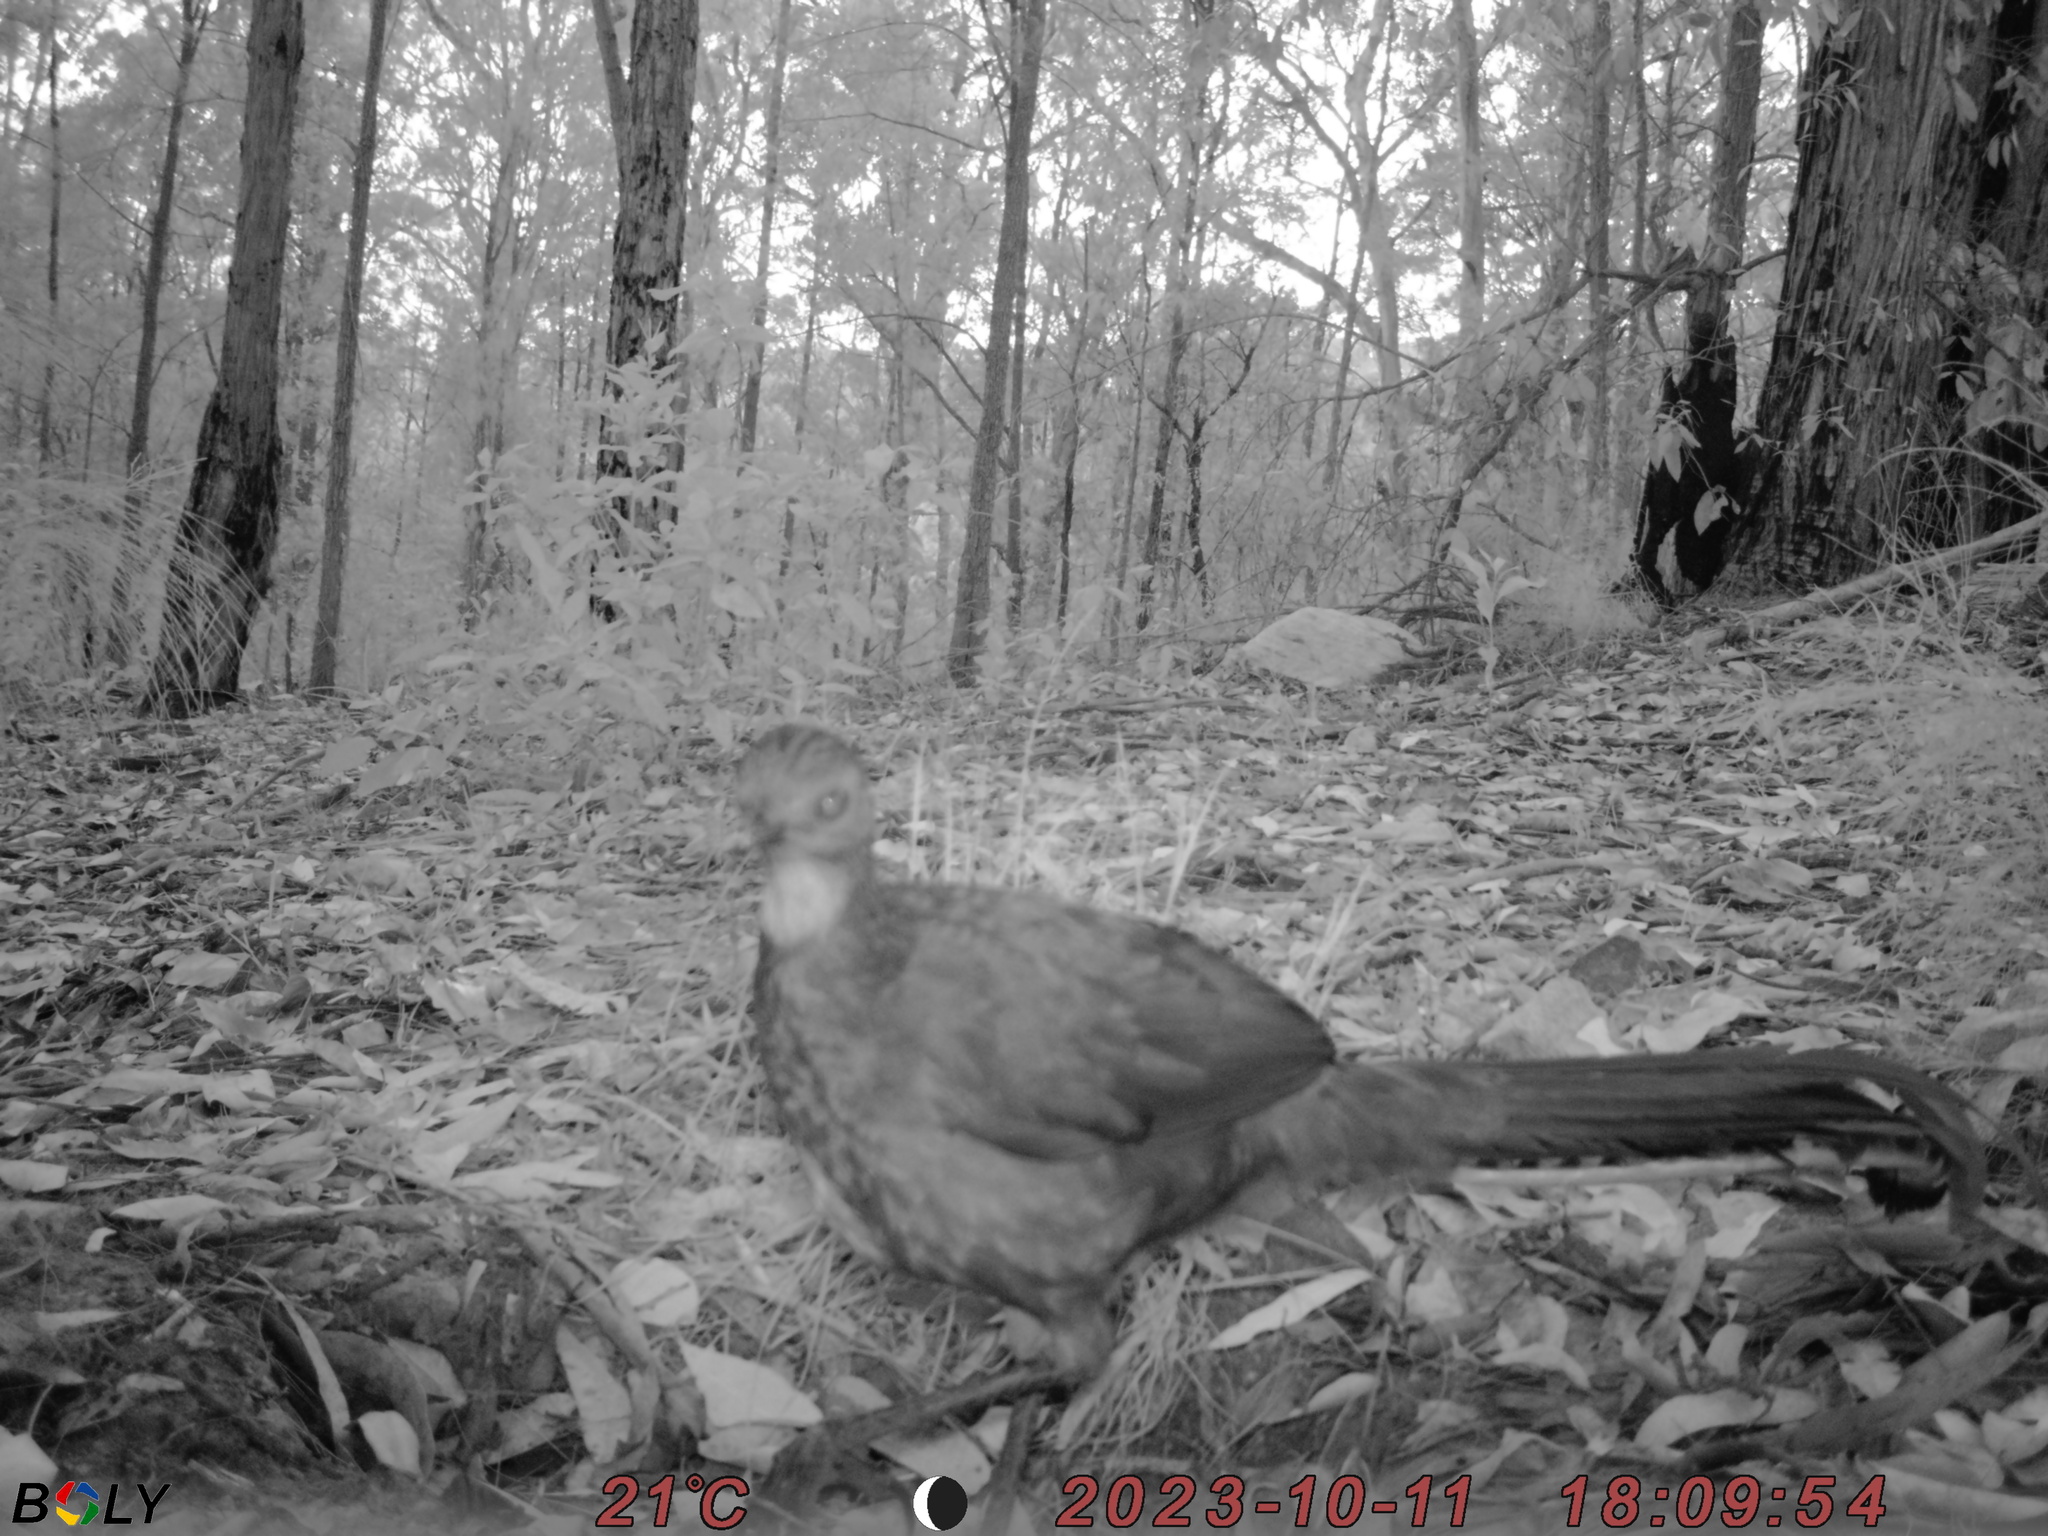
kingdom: Animalia
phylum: Chordata
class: Aves
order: Passeriformes
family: Menuridae
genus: Menura
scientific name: Menura novaehollandiae
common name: Superb lyrebird
